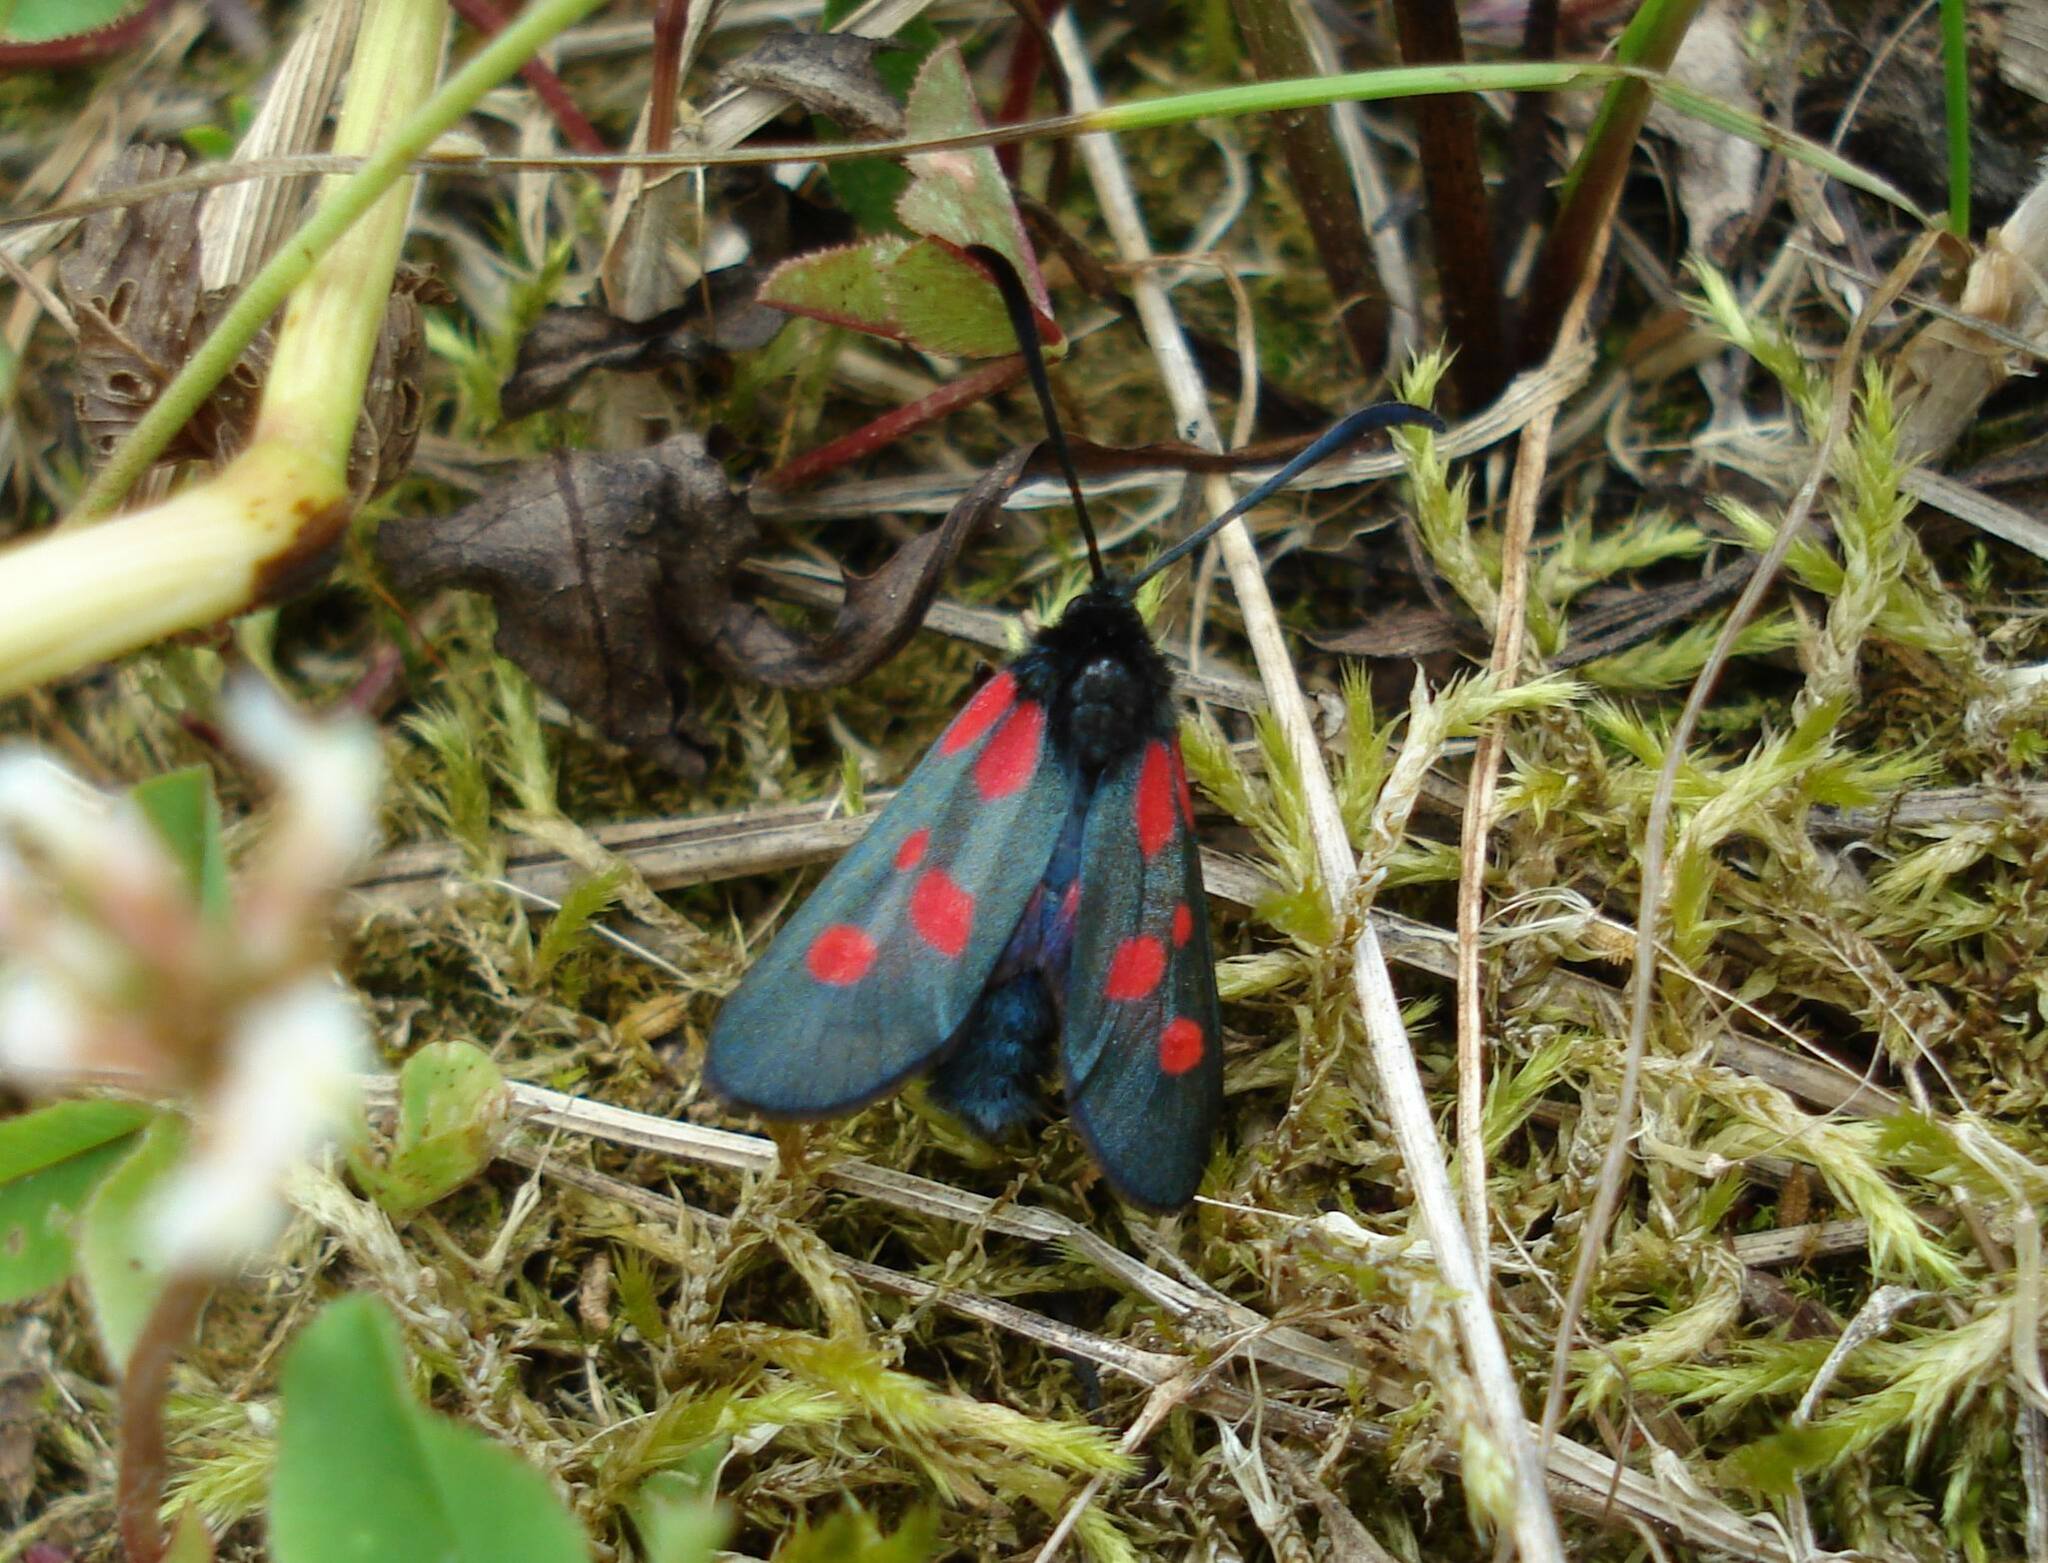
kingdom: Animalia
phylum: Arthropoda
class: Insecta
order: Lepidoptera
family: Zygaenidae
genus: Zygaena
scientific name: Zygaena lonicerae
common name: Narrow-bordered five-spot burnet
